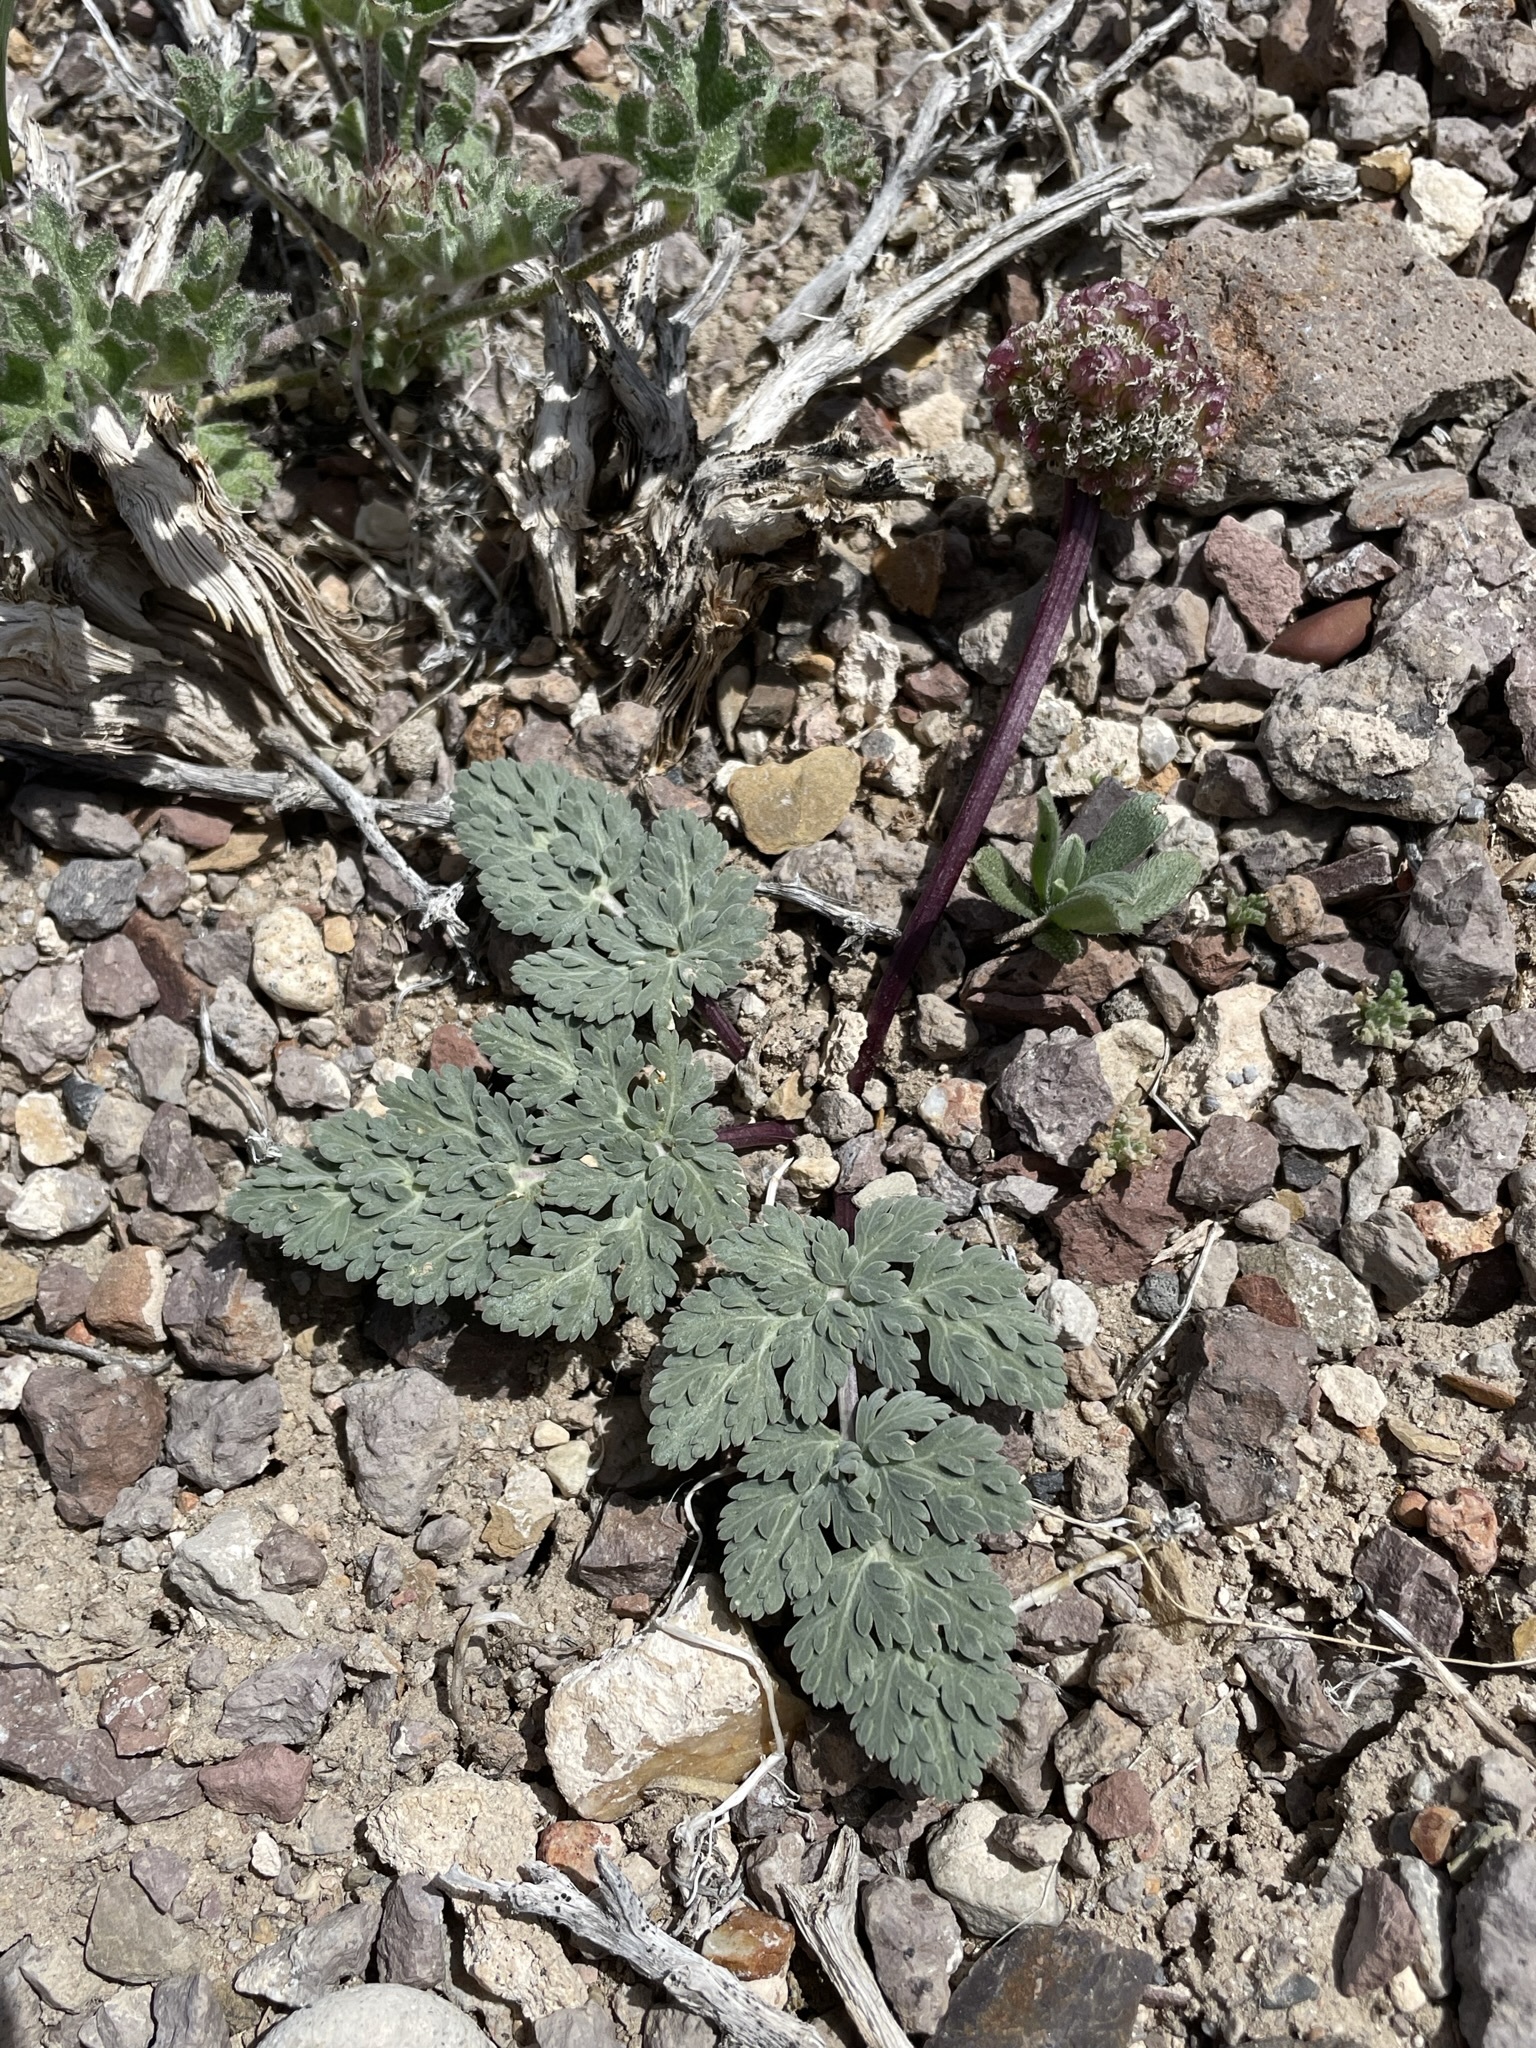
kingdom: Plantae
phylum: Tracheophyta
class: Magnoliopsida
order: Apiales
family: Apiaceae
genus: Cymopterus
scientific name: Cymopterus globosus
